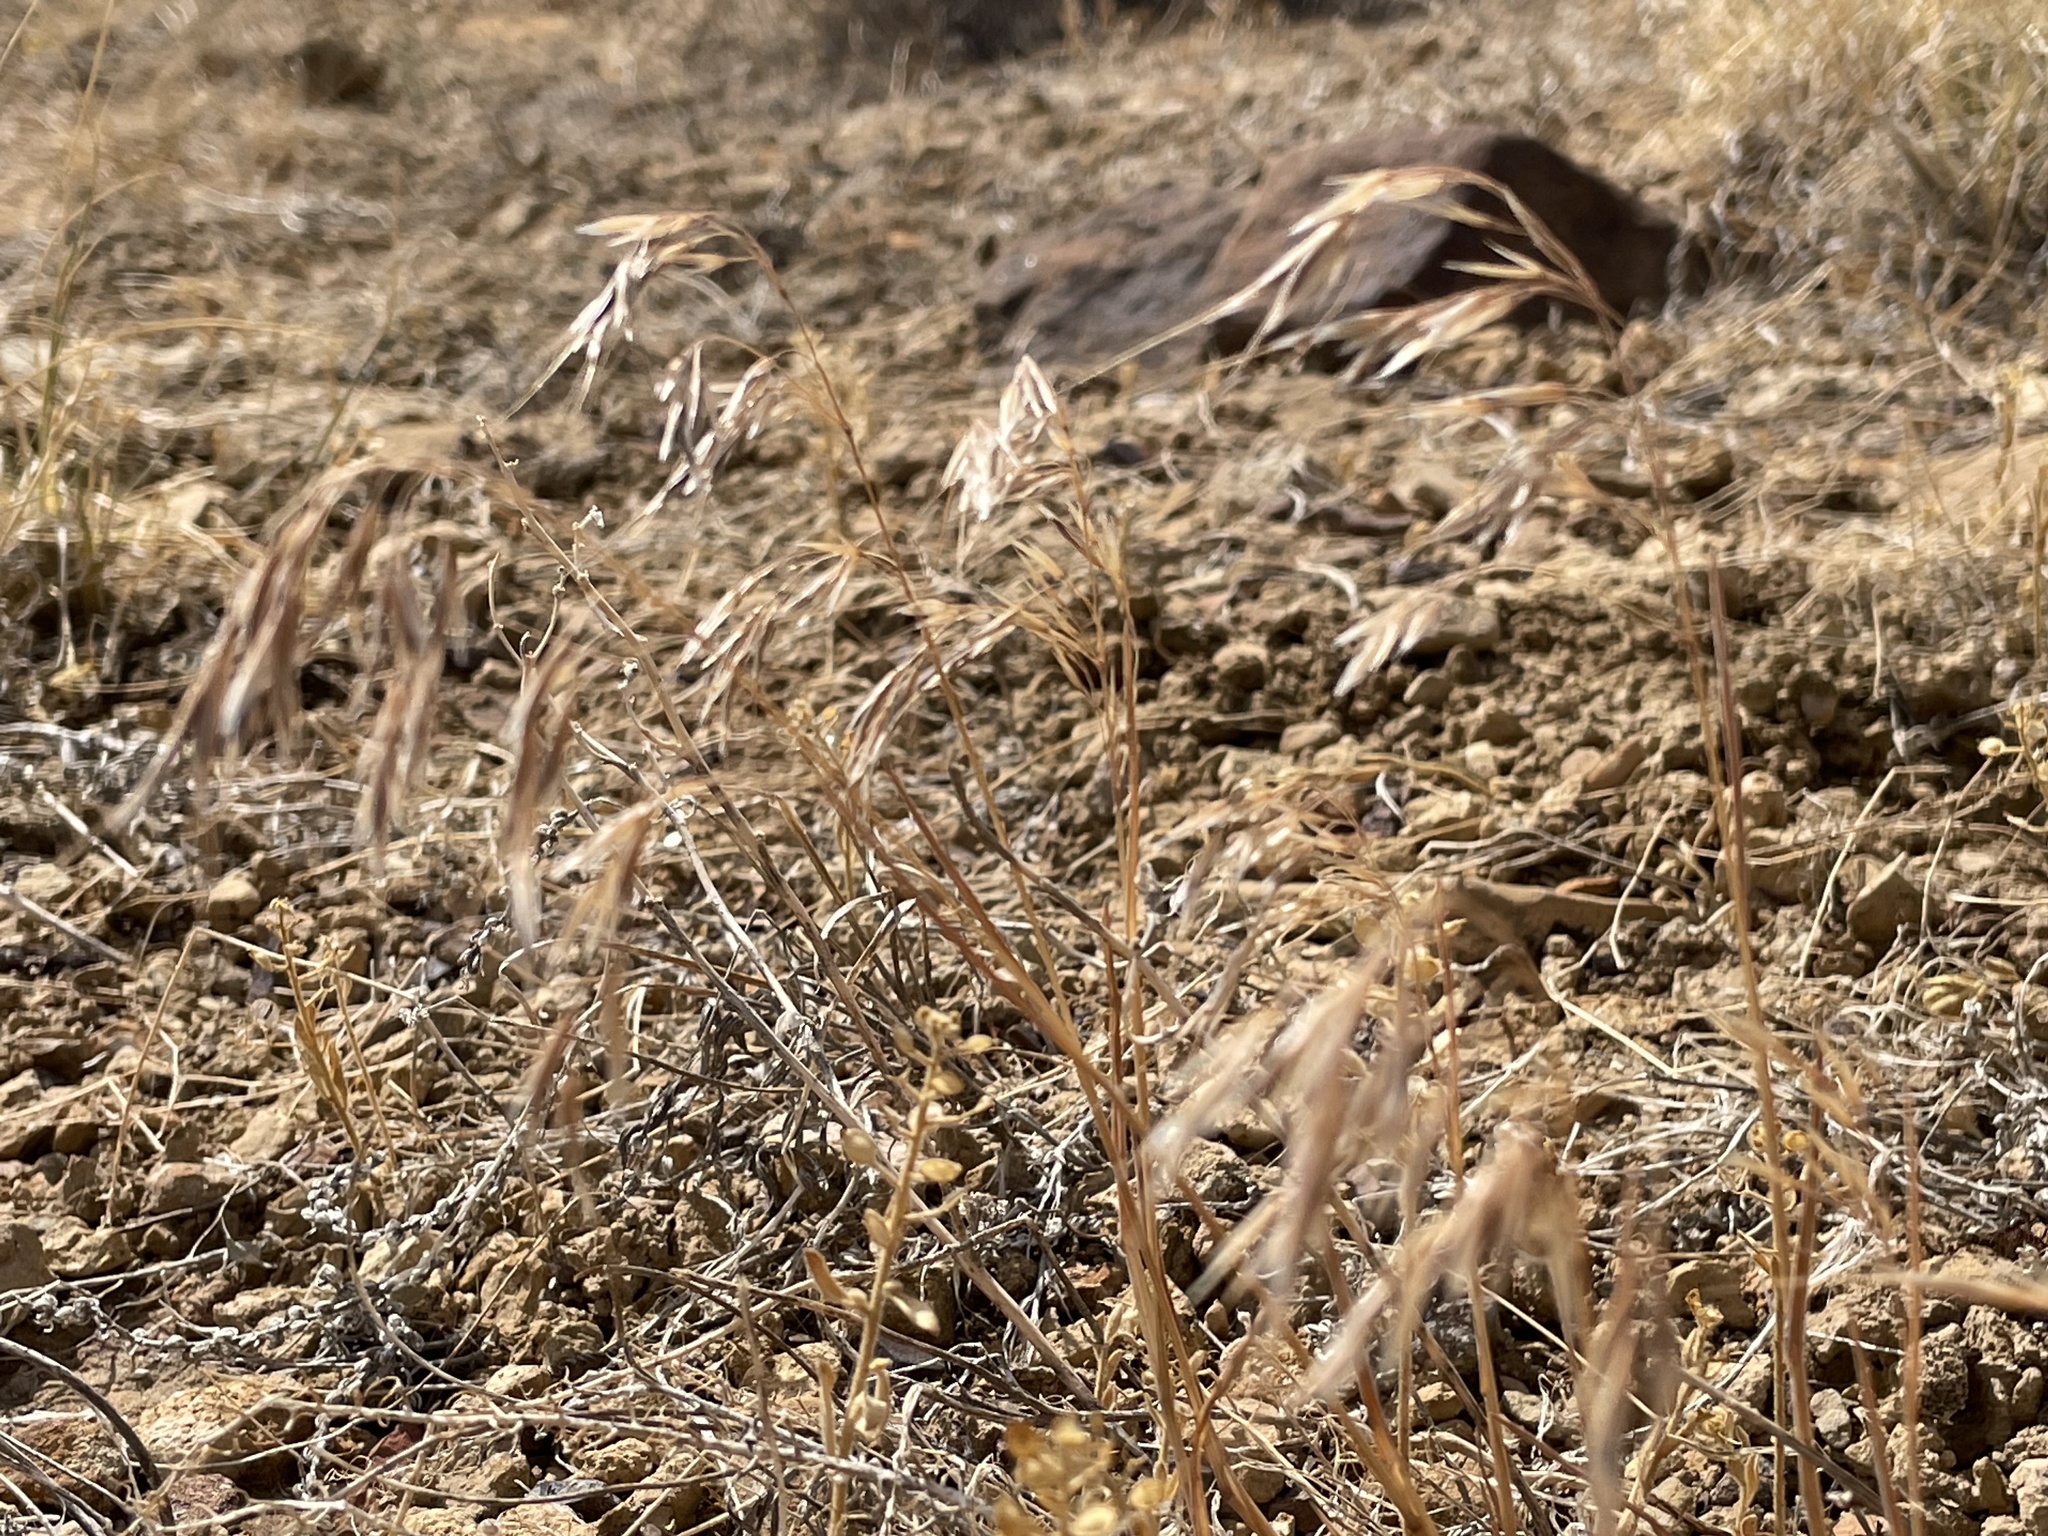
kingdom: Plantae
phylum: Tracheophyta
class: Magnoliopsida
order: Brassicales
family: Brassicaceae
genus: Alyssum
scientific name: Alyssum simplex
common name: Alyssum
